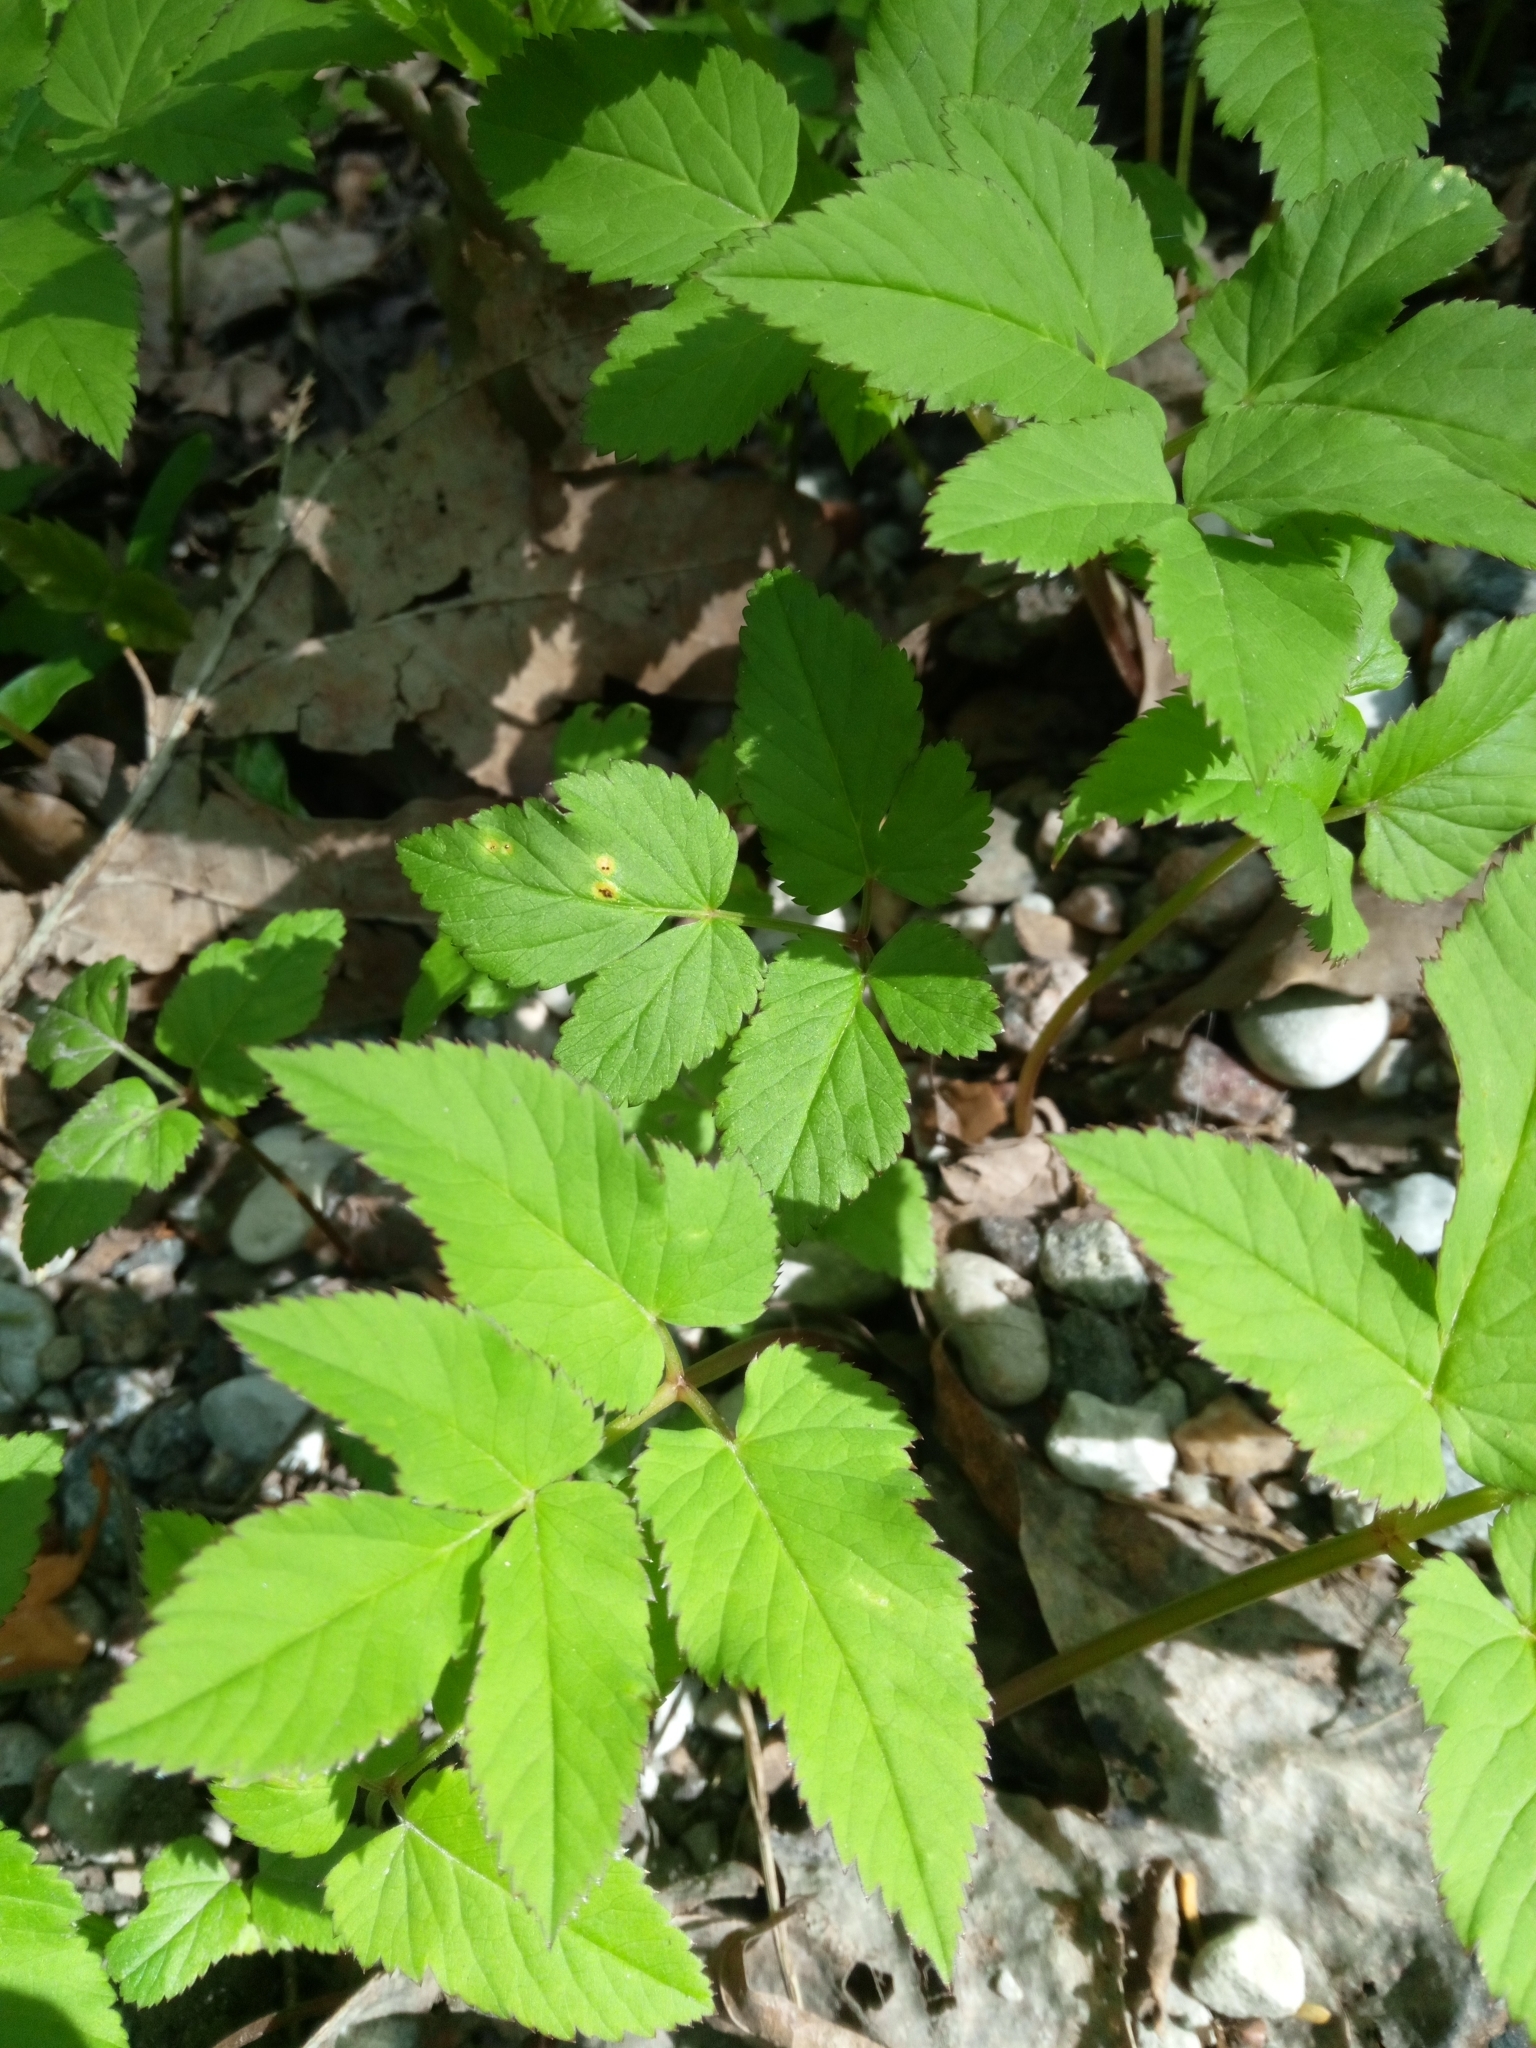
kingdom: Fungi
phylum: Basidiomycota
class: Pucciniomycetes
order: Pucciniales
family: Pucciniaceae
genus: Puccinia
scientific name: Puccinia aegopodii
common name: Ground elder rust
